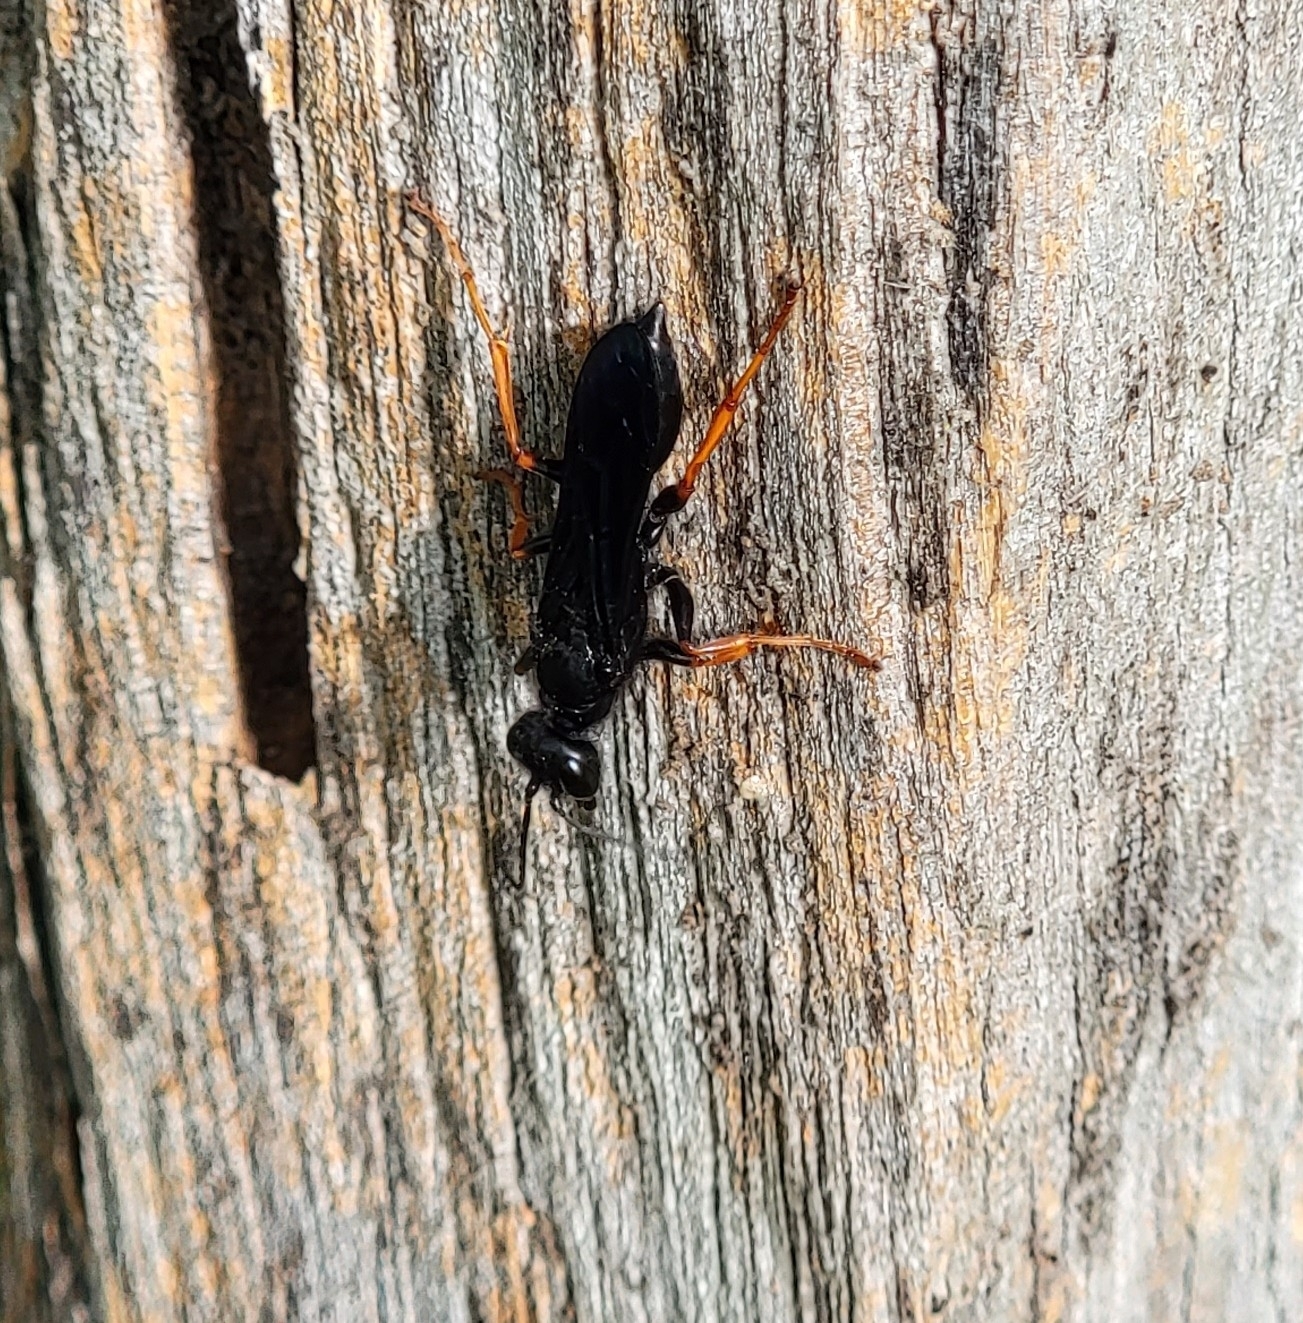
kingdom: Animalia
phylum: Arthropoda
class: Insecta
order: Hymenoptera
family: Sphecidae
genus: Podium
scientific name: Podium luctuosum
